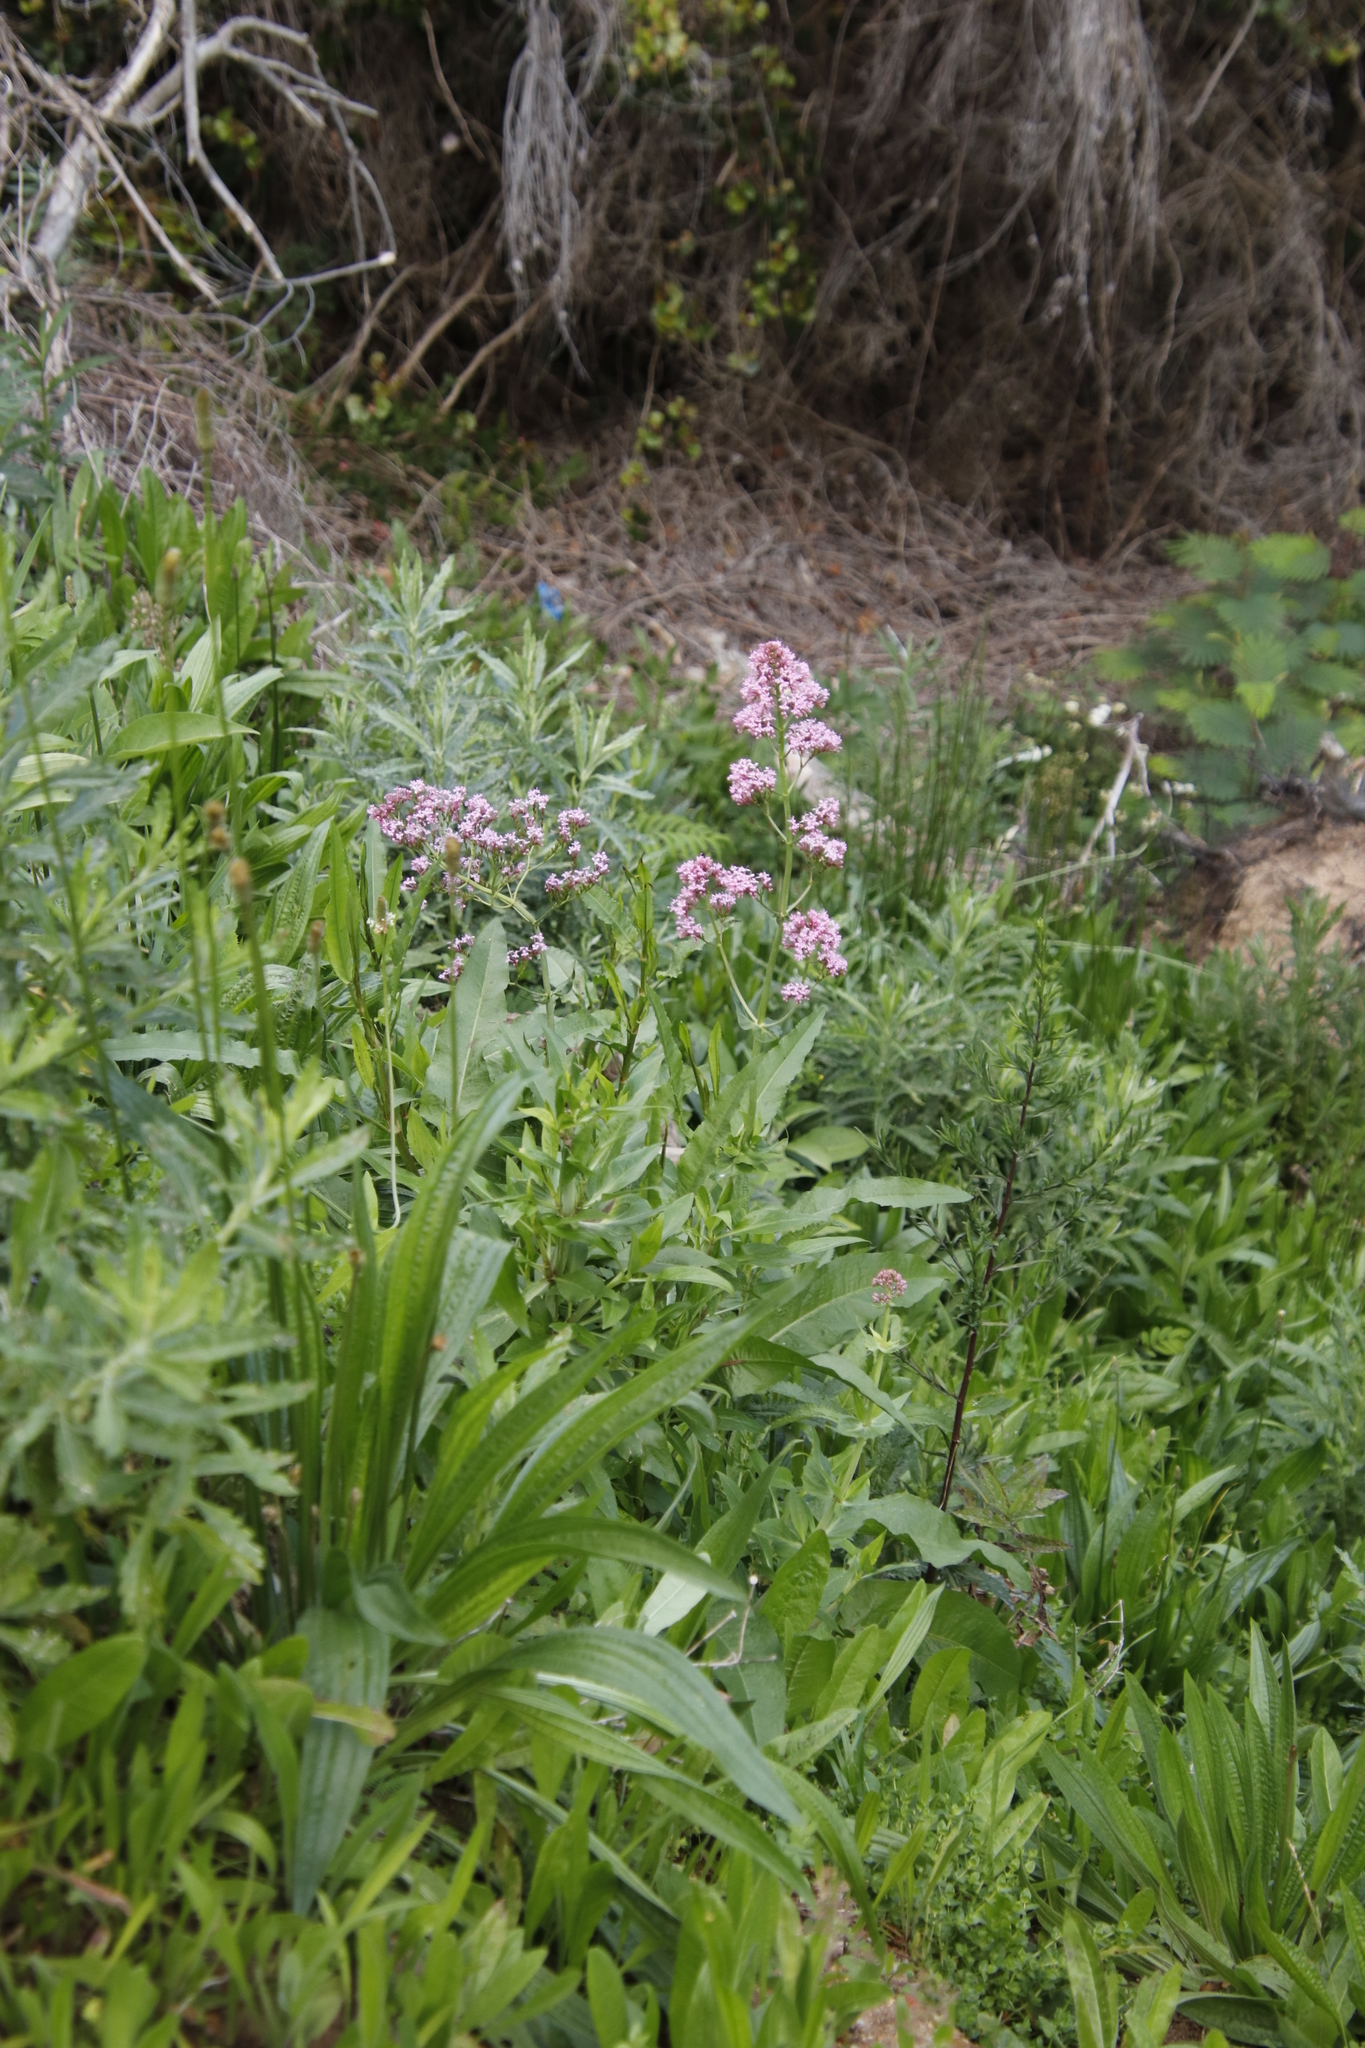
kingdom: Plantae
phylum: Tracheophyta
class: Magnoliopsida
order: Dipsacales
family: Caprifoliaceae
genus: Centranthus
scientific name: Centranthus ruber
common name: Red valerian
